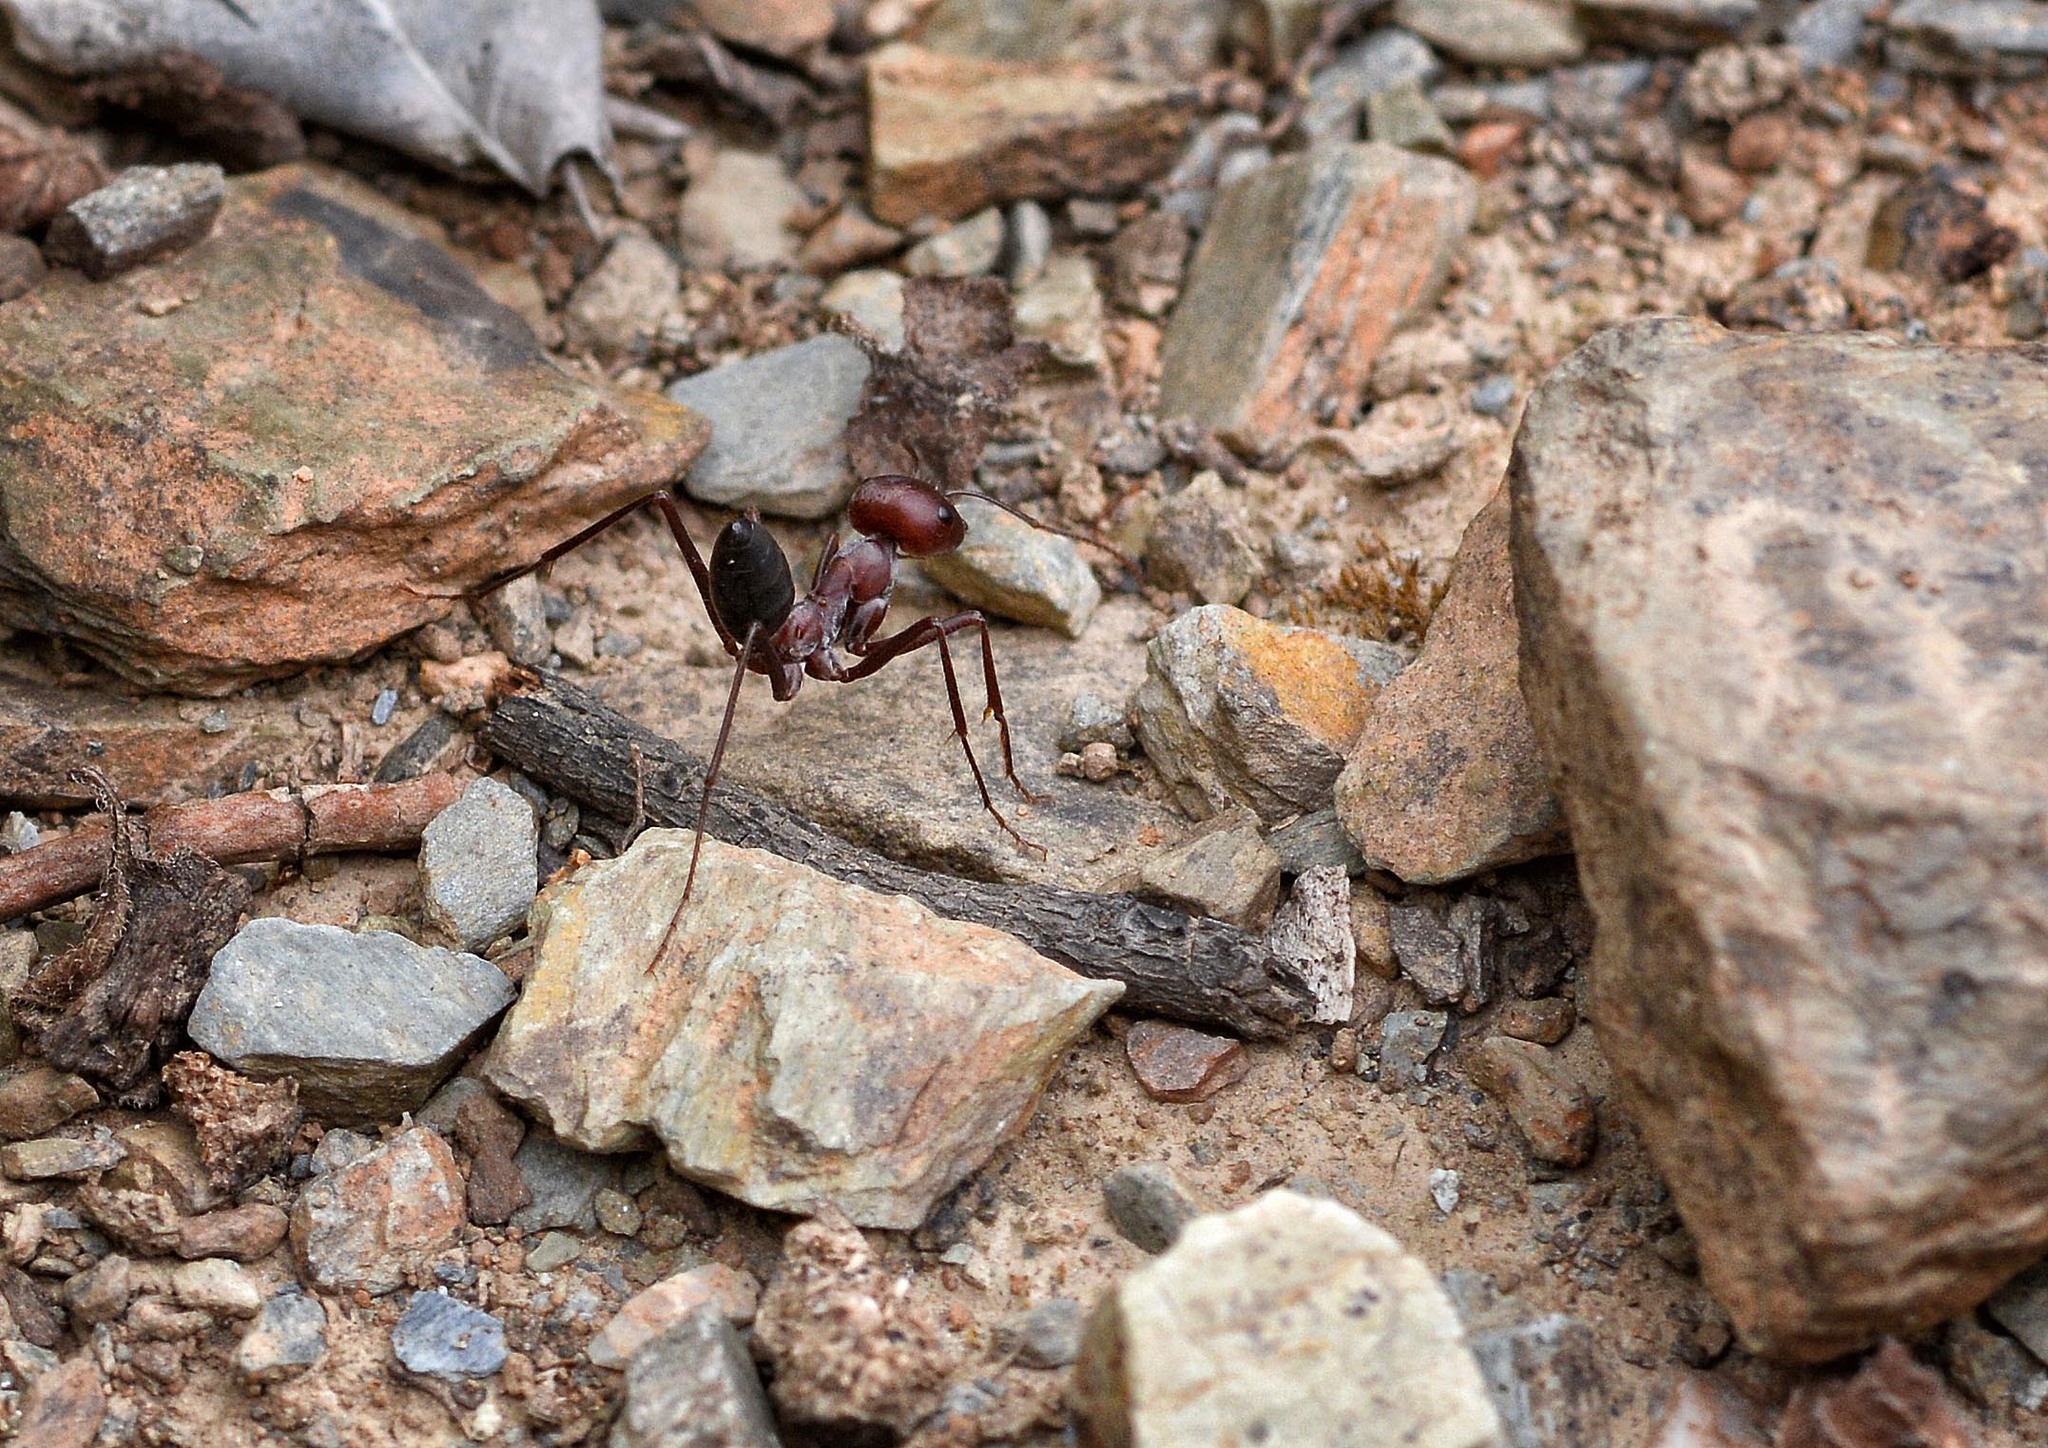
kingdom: Animalia
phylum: Arthropoda
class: Insecta
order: Hymenoptera
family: Formicidae
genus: Cataglyphis
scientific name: Cataglyphis nodus
